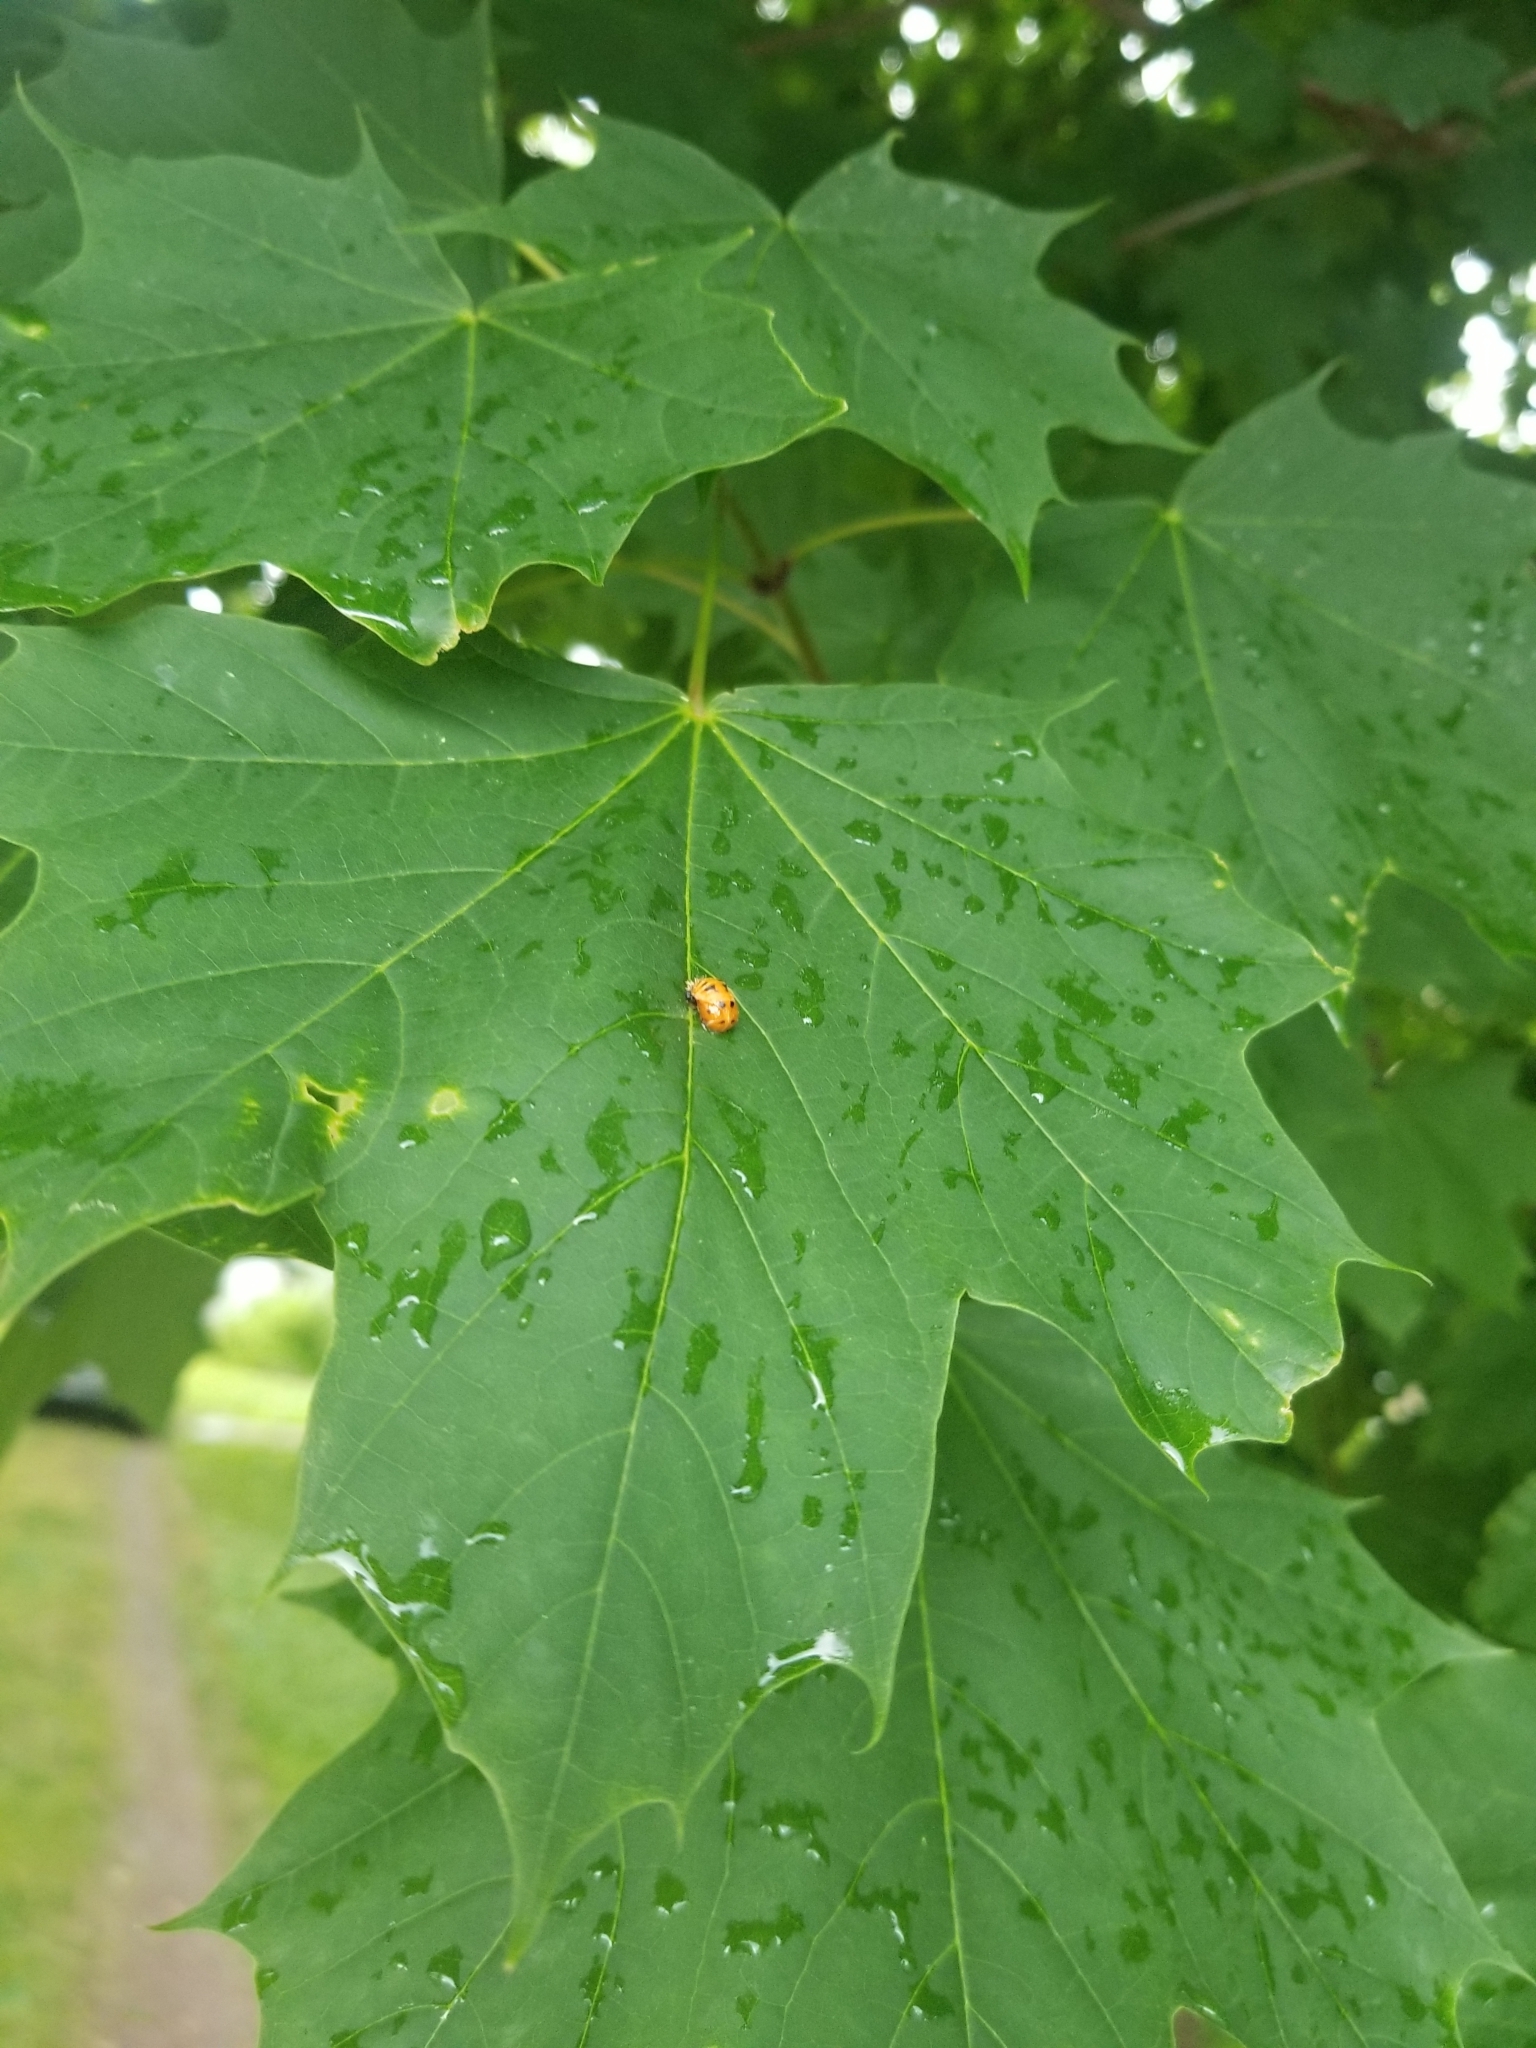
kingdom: Animalia
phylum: Arthropoda
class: Insecta
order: Coleoptera
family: Coccinellidae
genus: Harmonia
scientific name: Harmonia axyridis
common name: Harlequin ladybird
